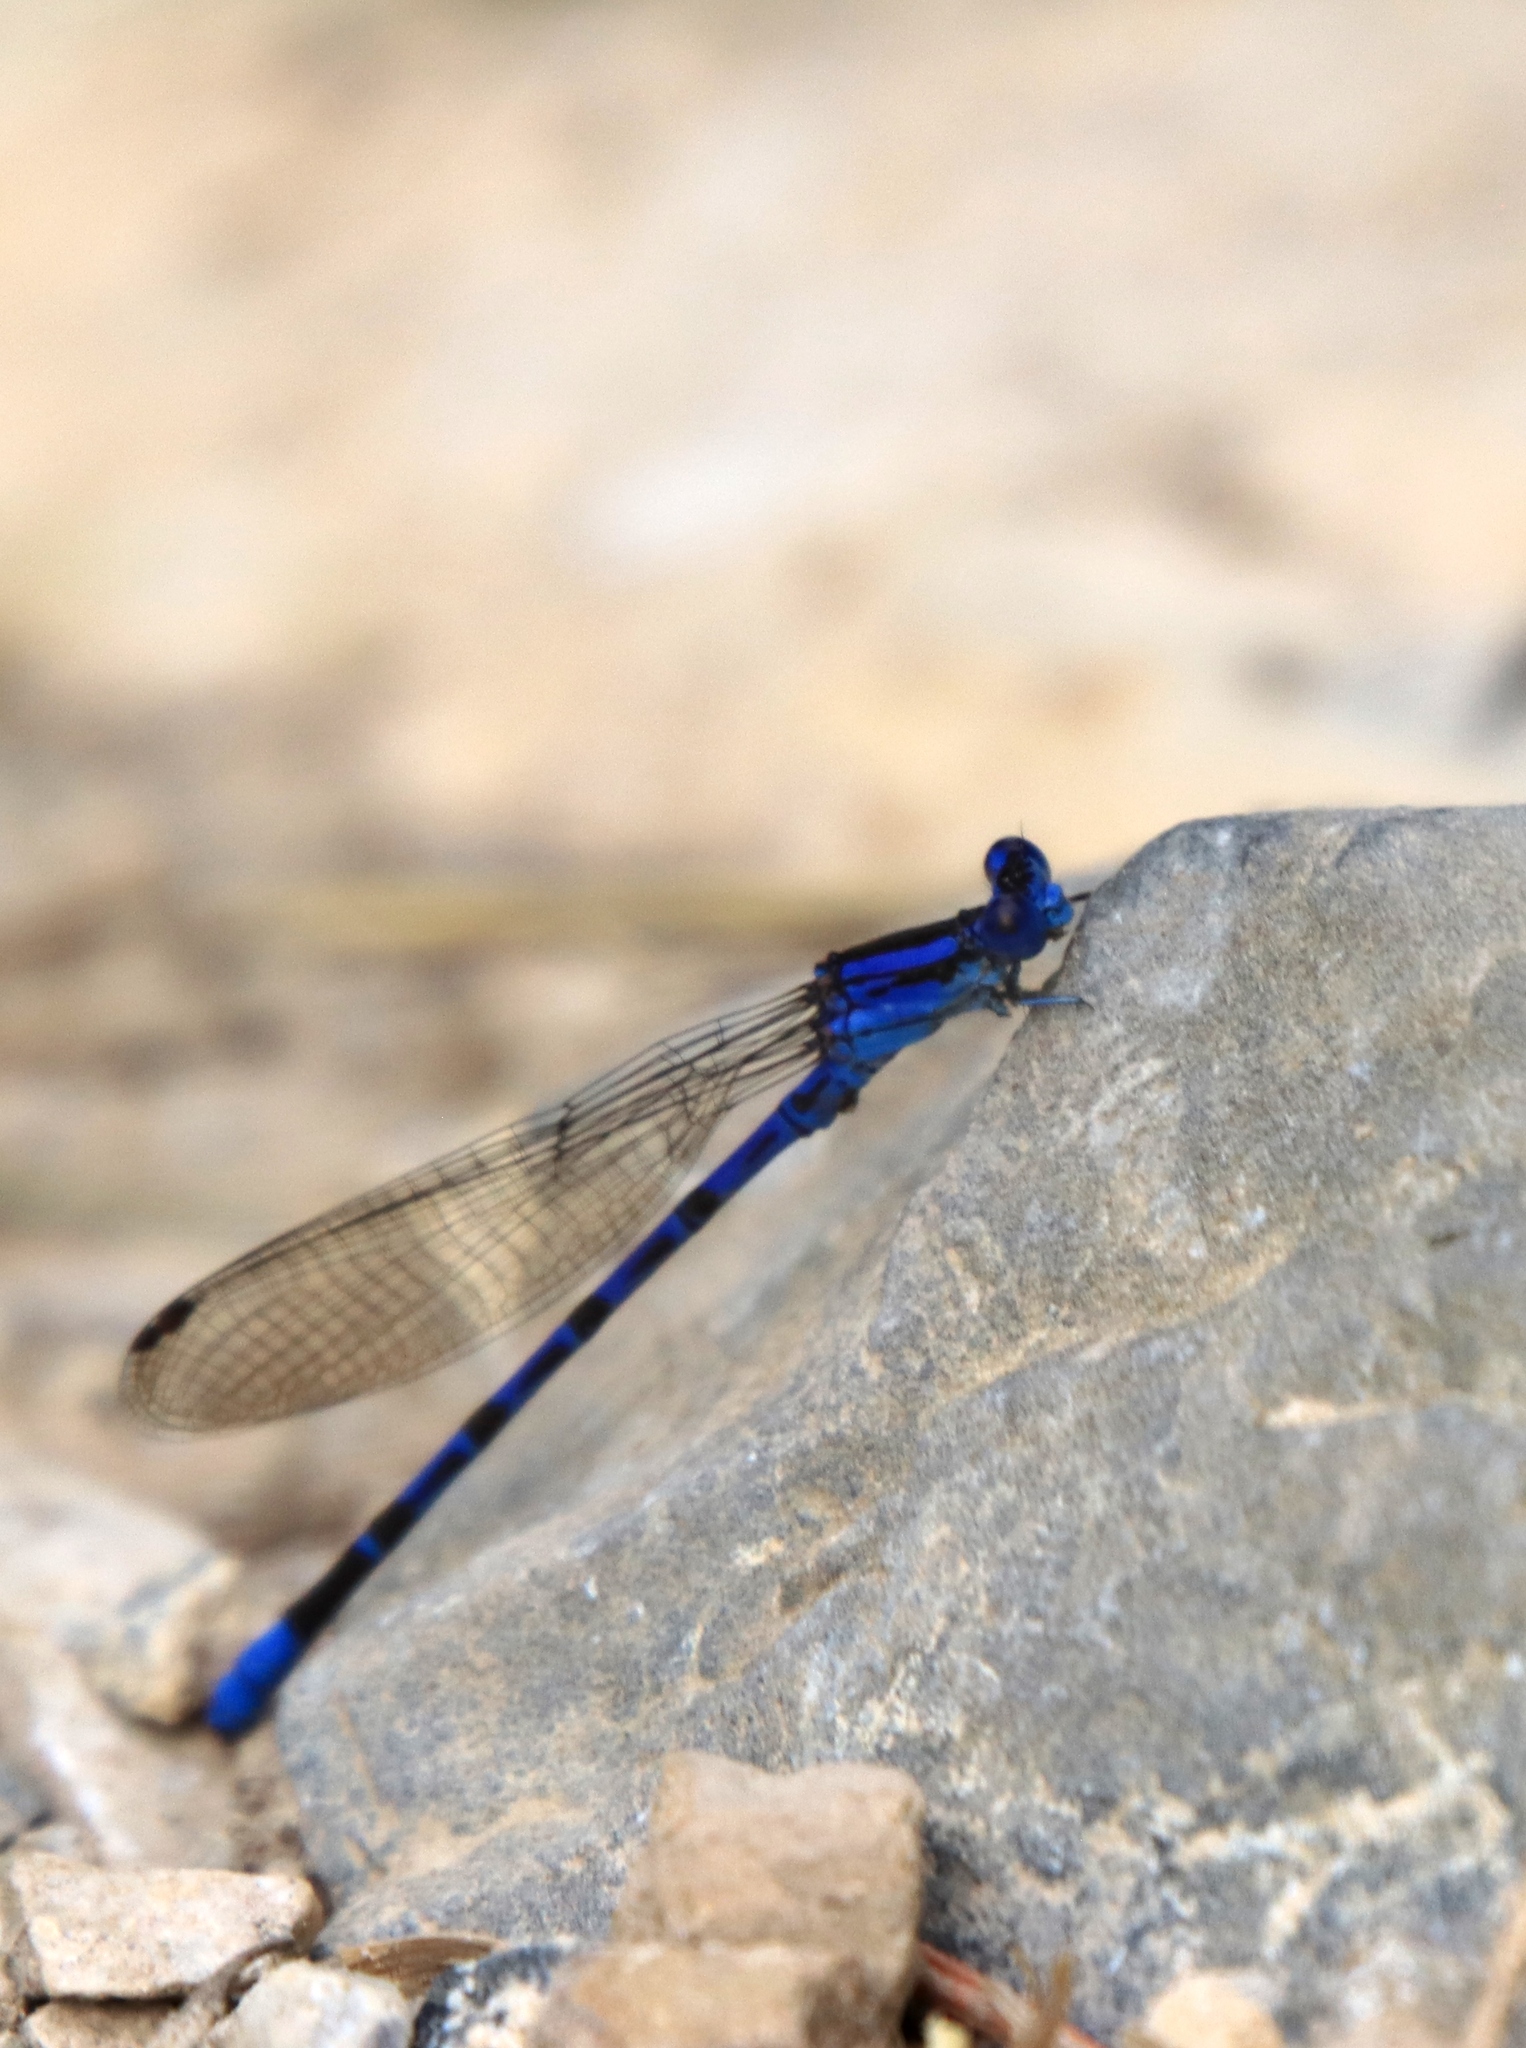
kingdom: Animalia
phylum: Arthropoda
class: Insecta
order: Odonata
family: Coenagrionidae
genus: Argia
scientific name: Argia vivida
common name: Vivid dancer
